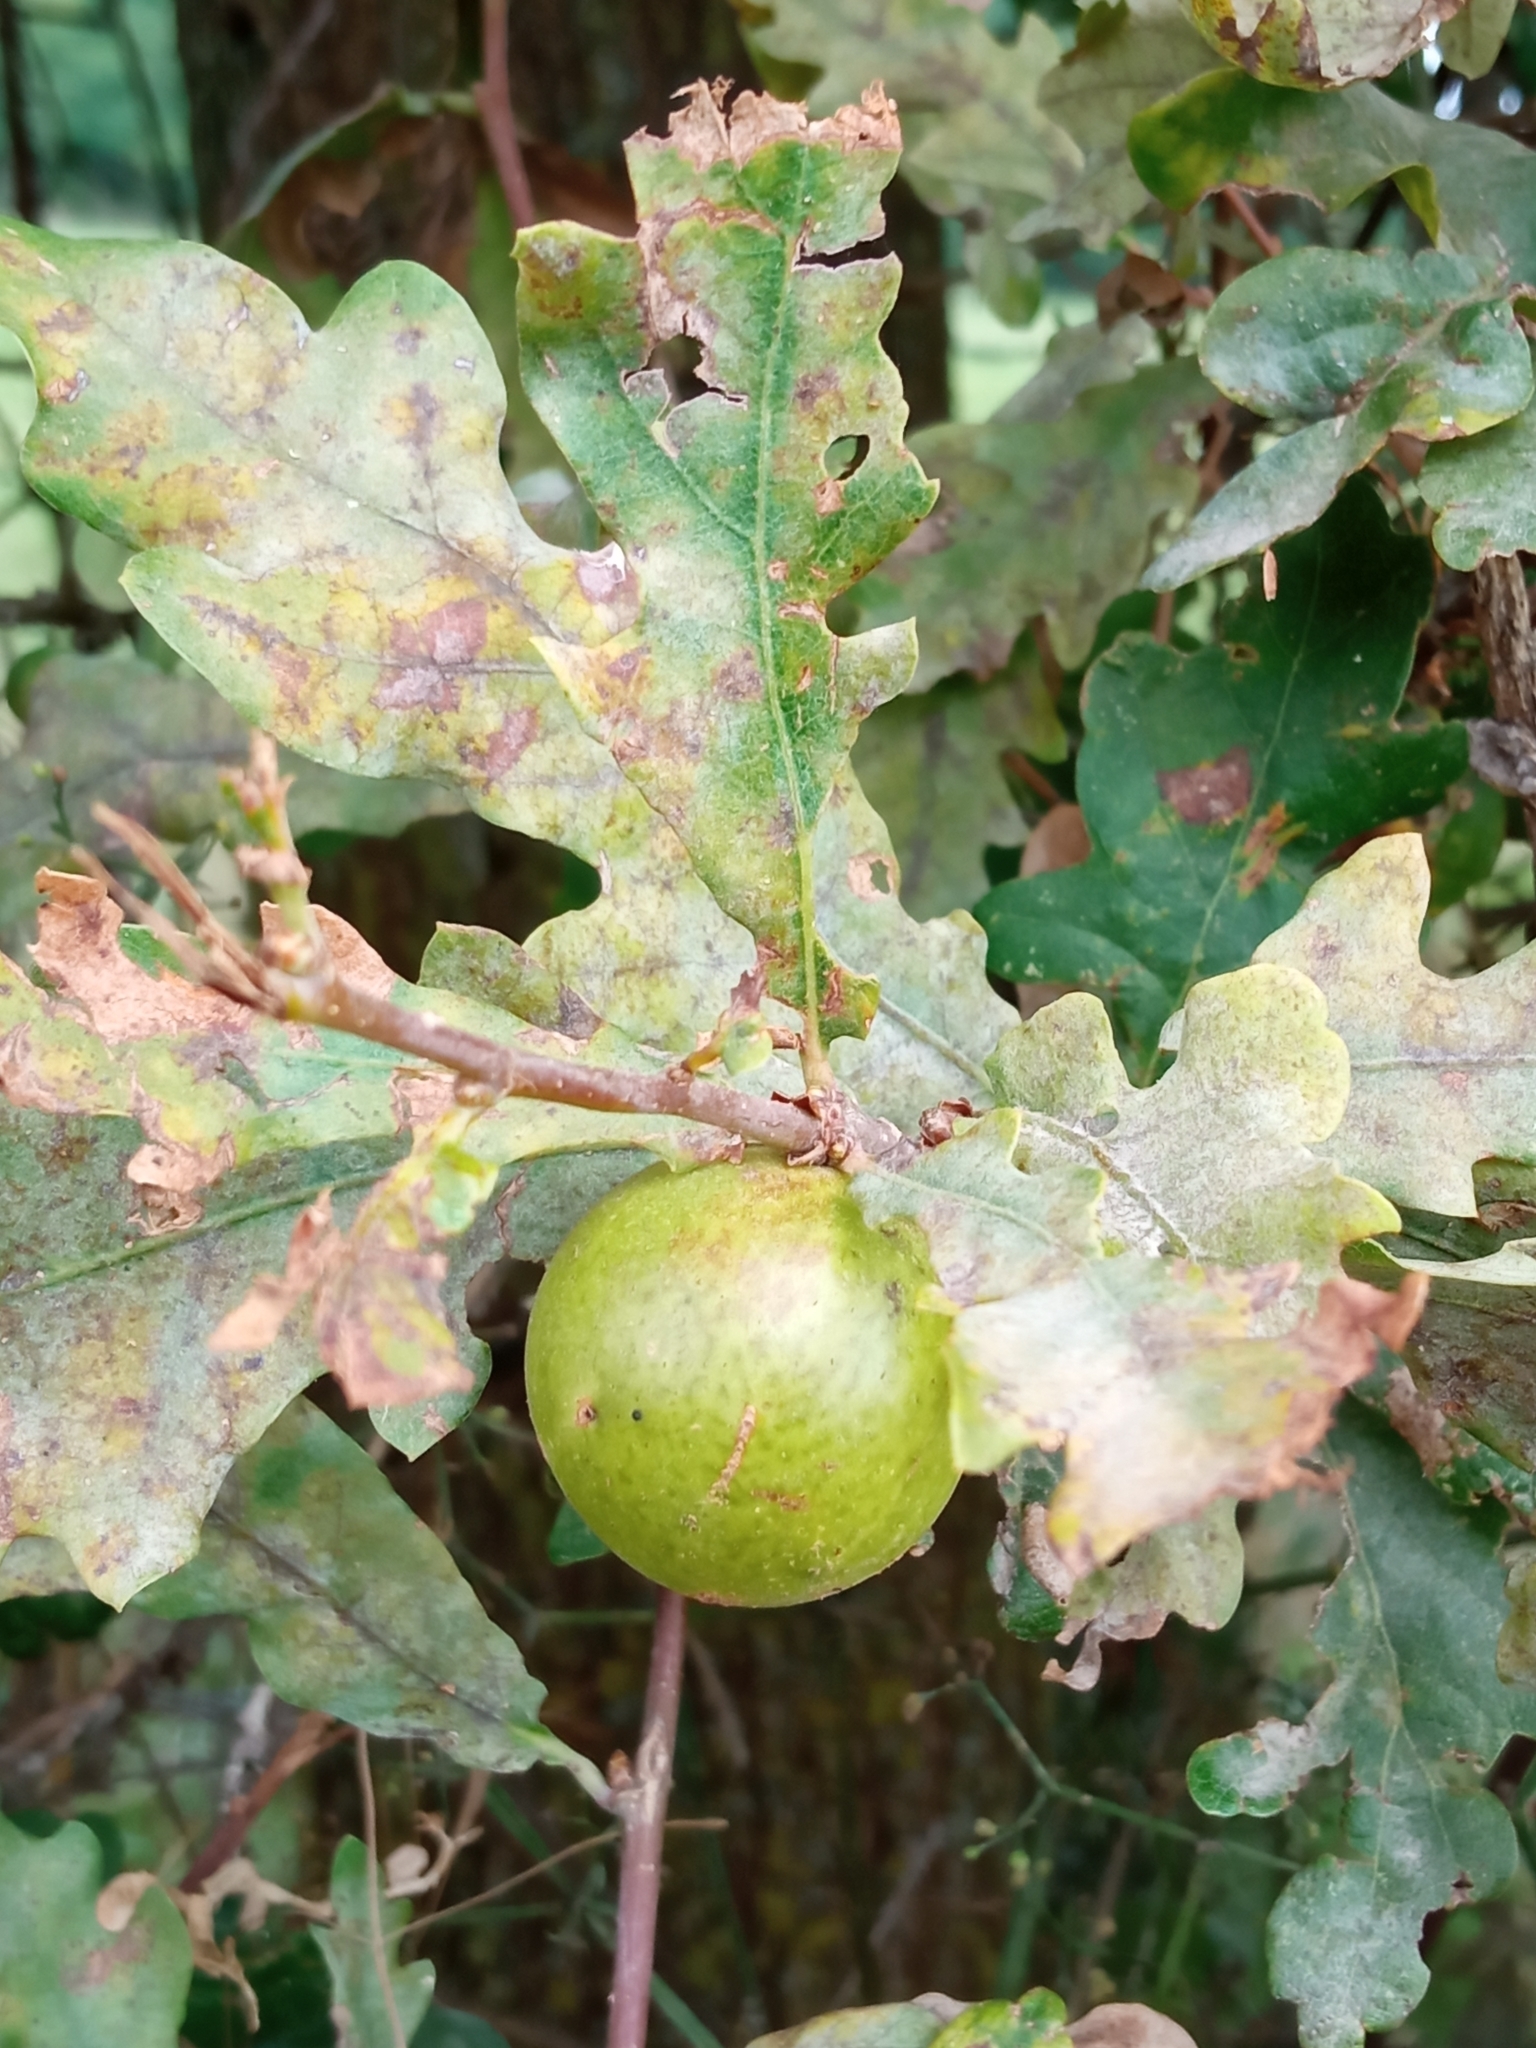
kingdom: Animalia
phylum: Arthropoda
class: Insecta
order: Hymenoptera
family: Cynipidae
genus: Andricus
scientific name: Andricus kollari
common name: Marble gall
